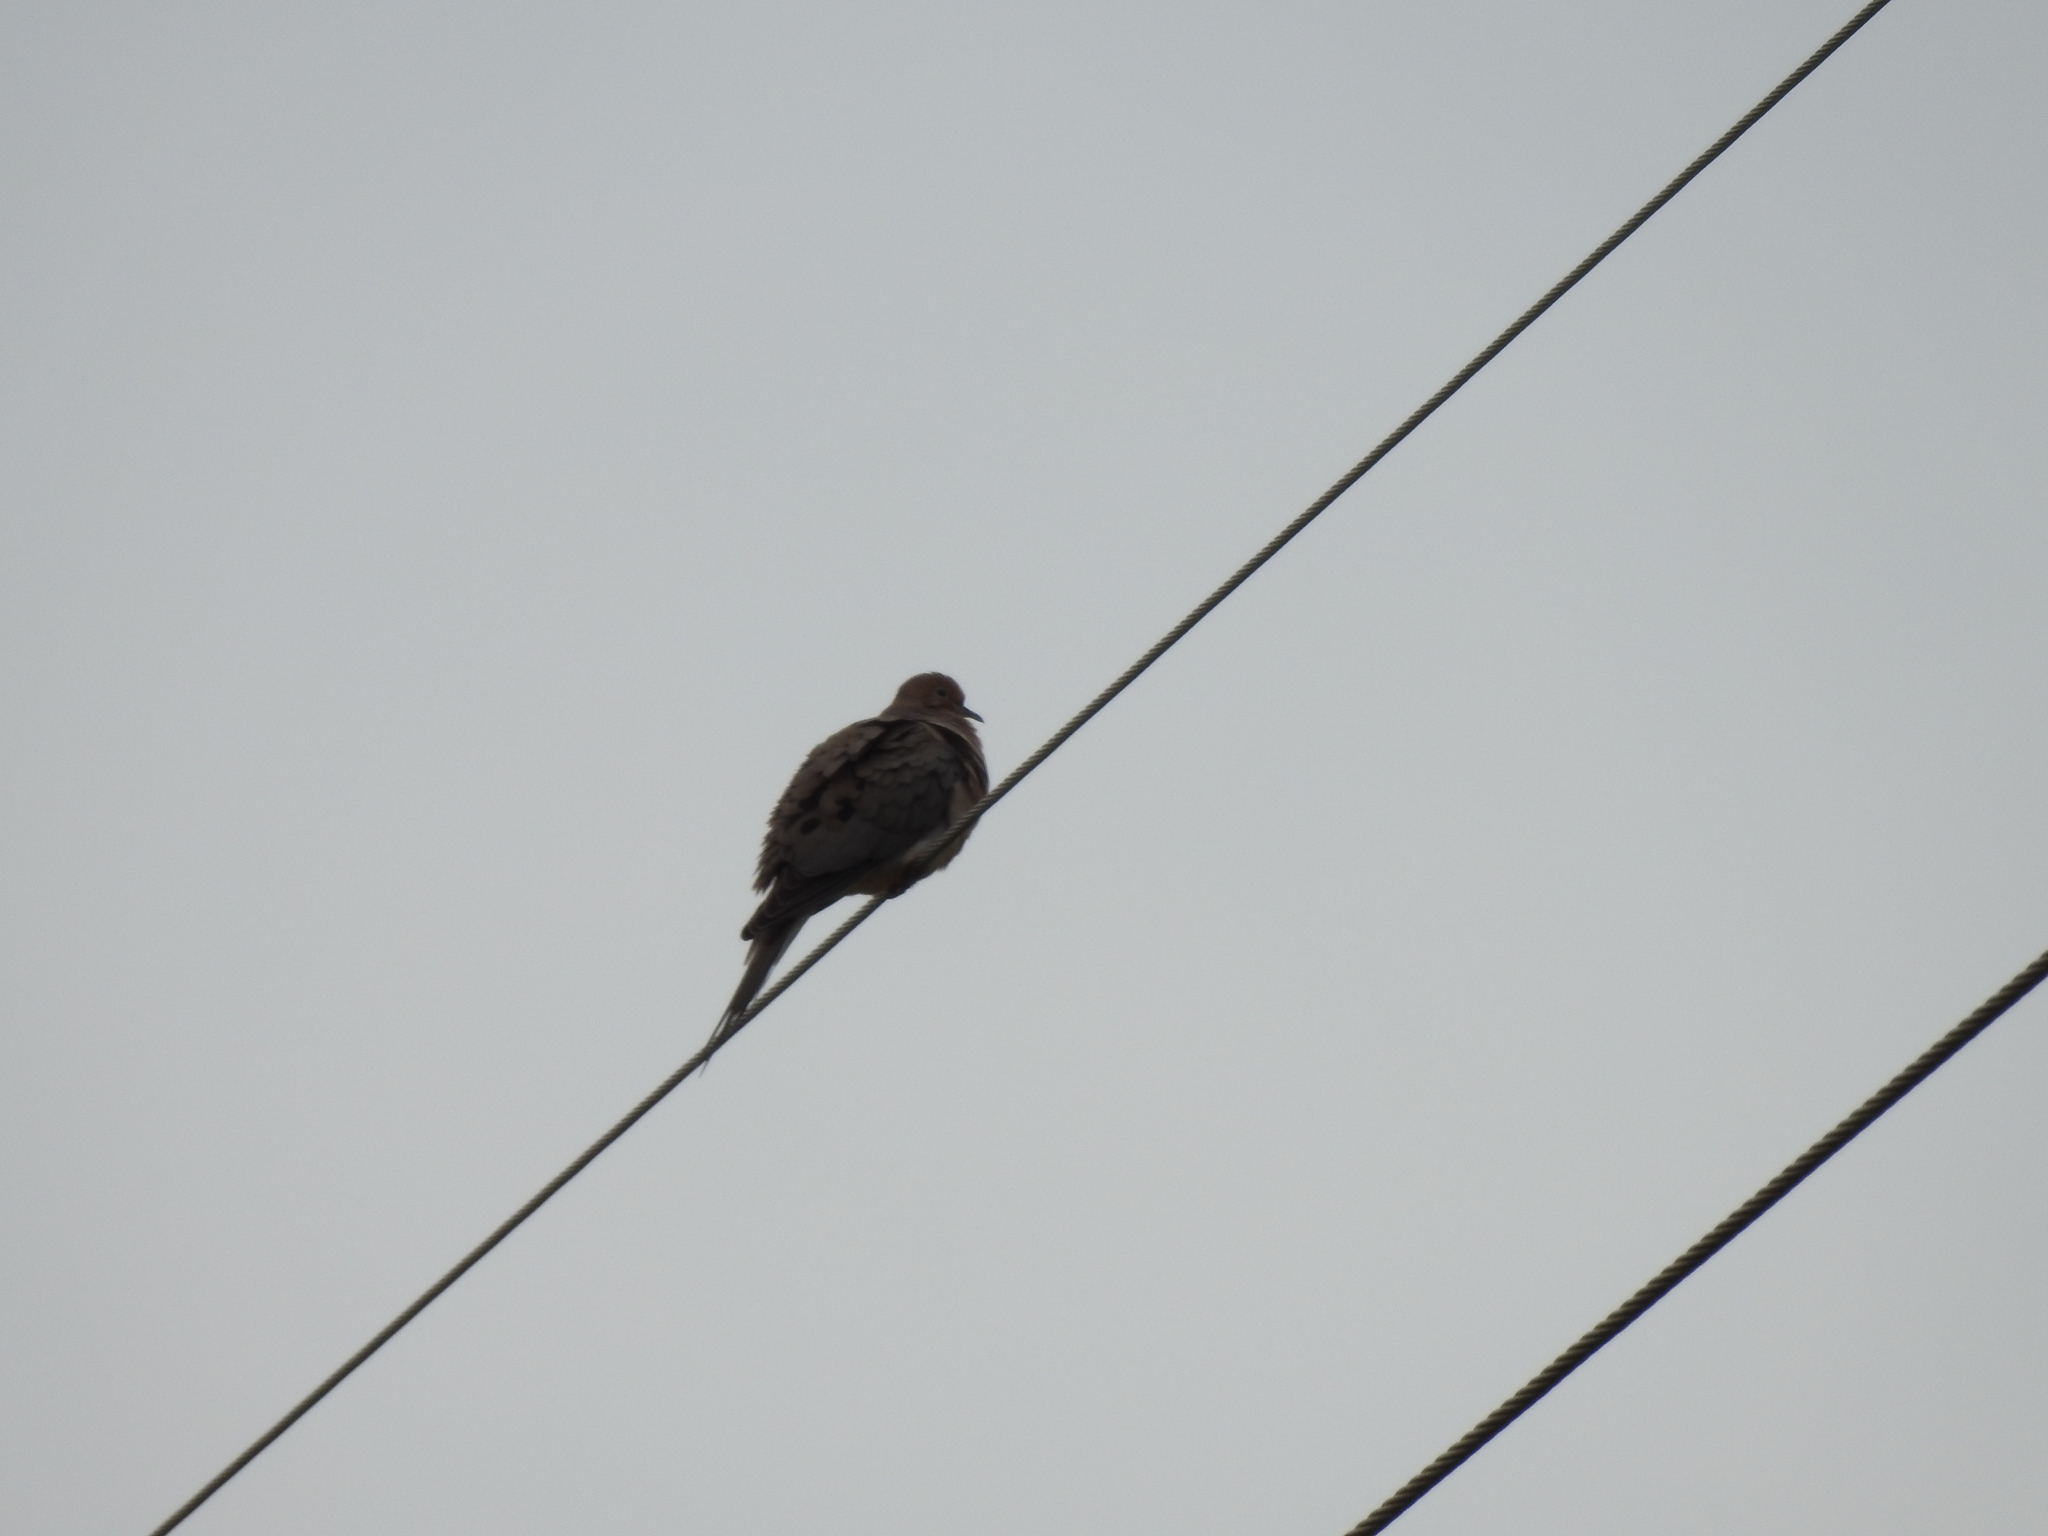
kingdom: Animalia
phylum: Chordata
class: Aves
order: Columbiformes
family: Columbidae
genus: Zenaida
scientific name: Zenaida macroura
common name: Mourning dove
